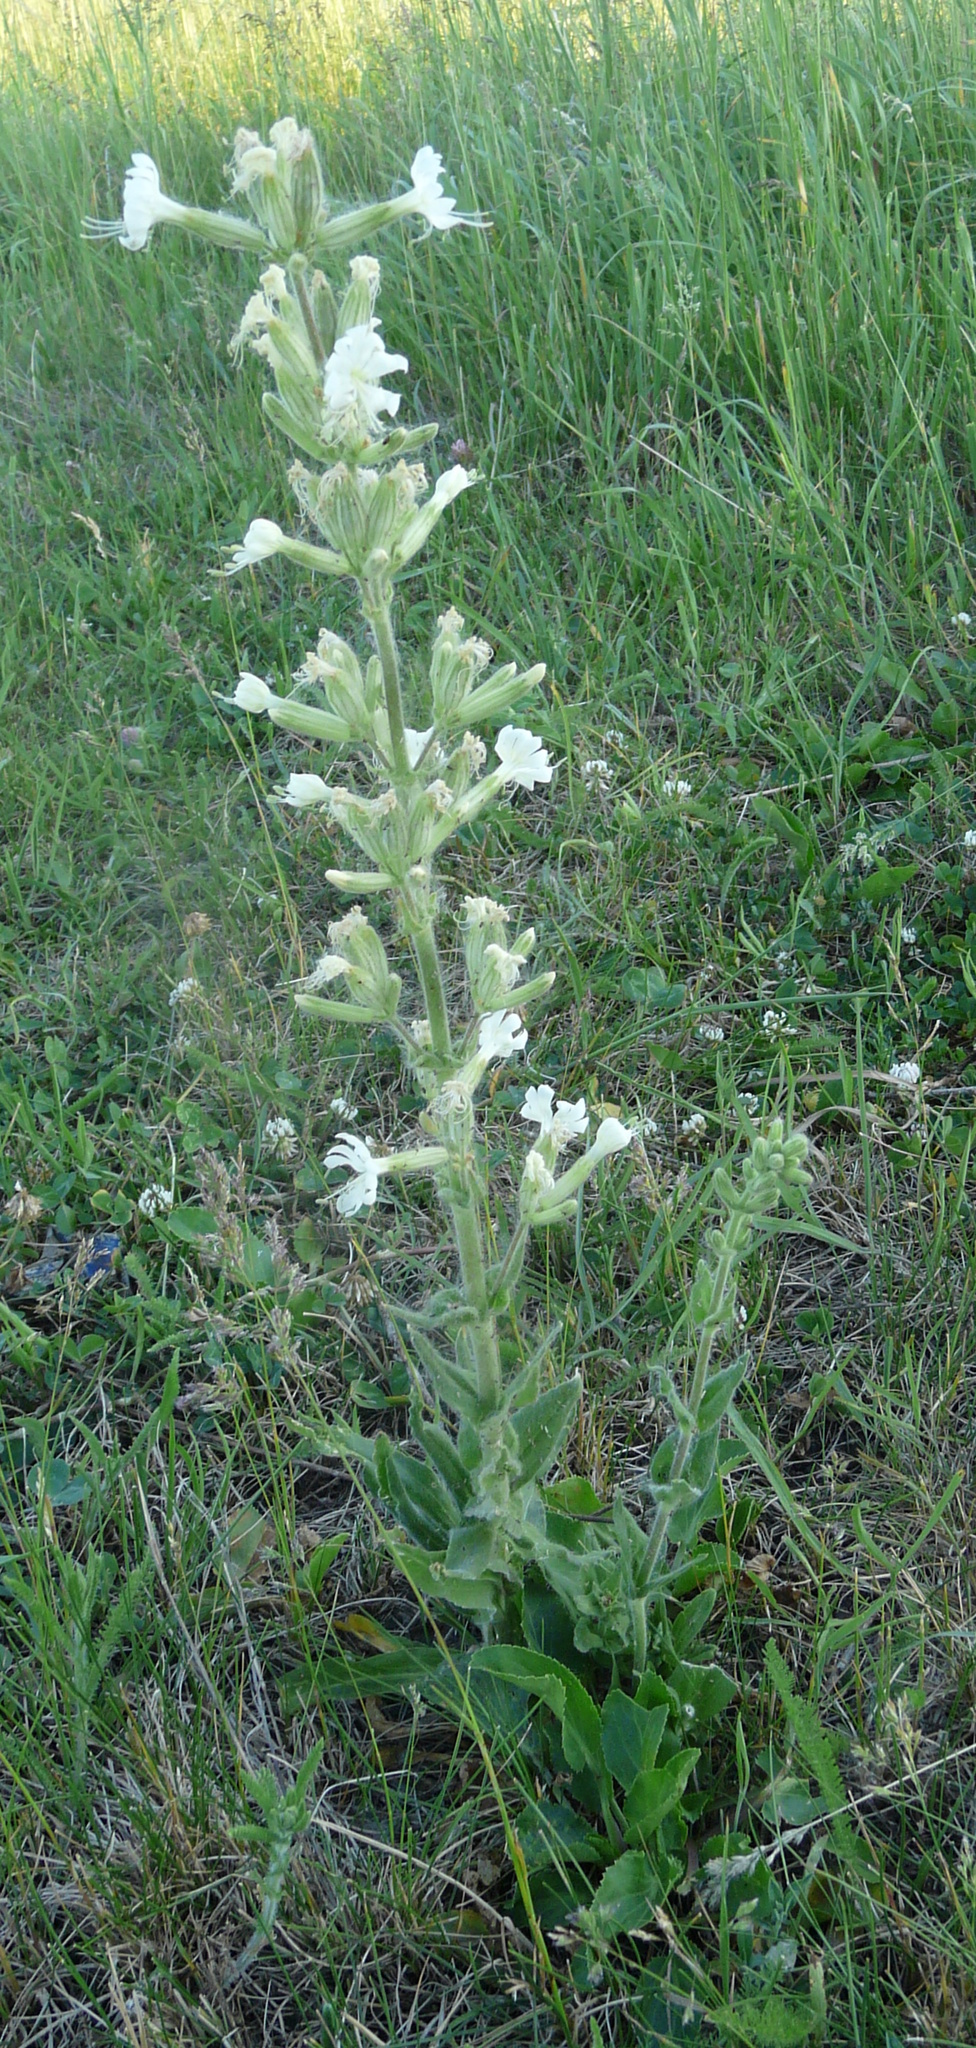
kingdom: Plantae
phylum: Tracheophyta
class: Magnoliopsida
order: Caryophyllales
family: Caryophyllaceae
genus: Silene
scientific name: Silene viscosa
